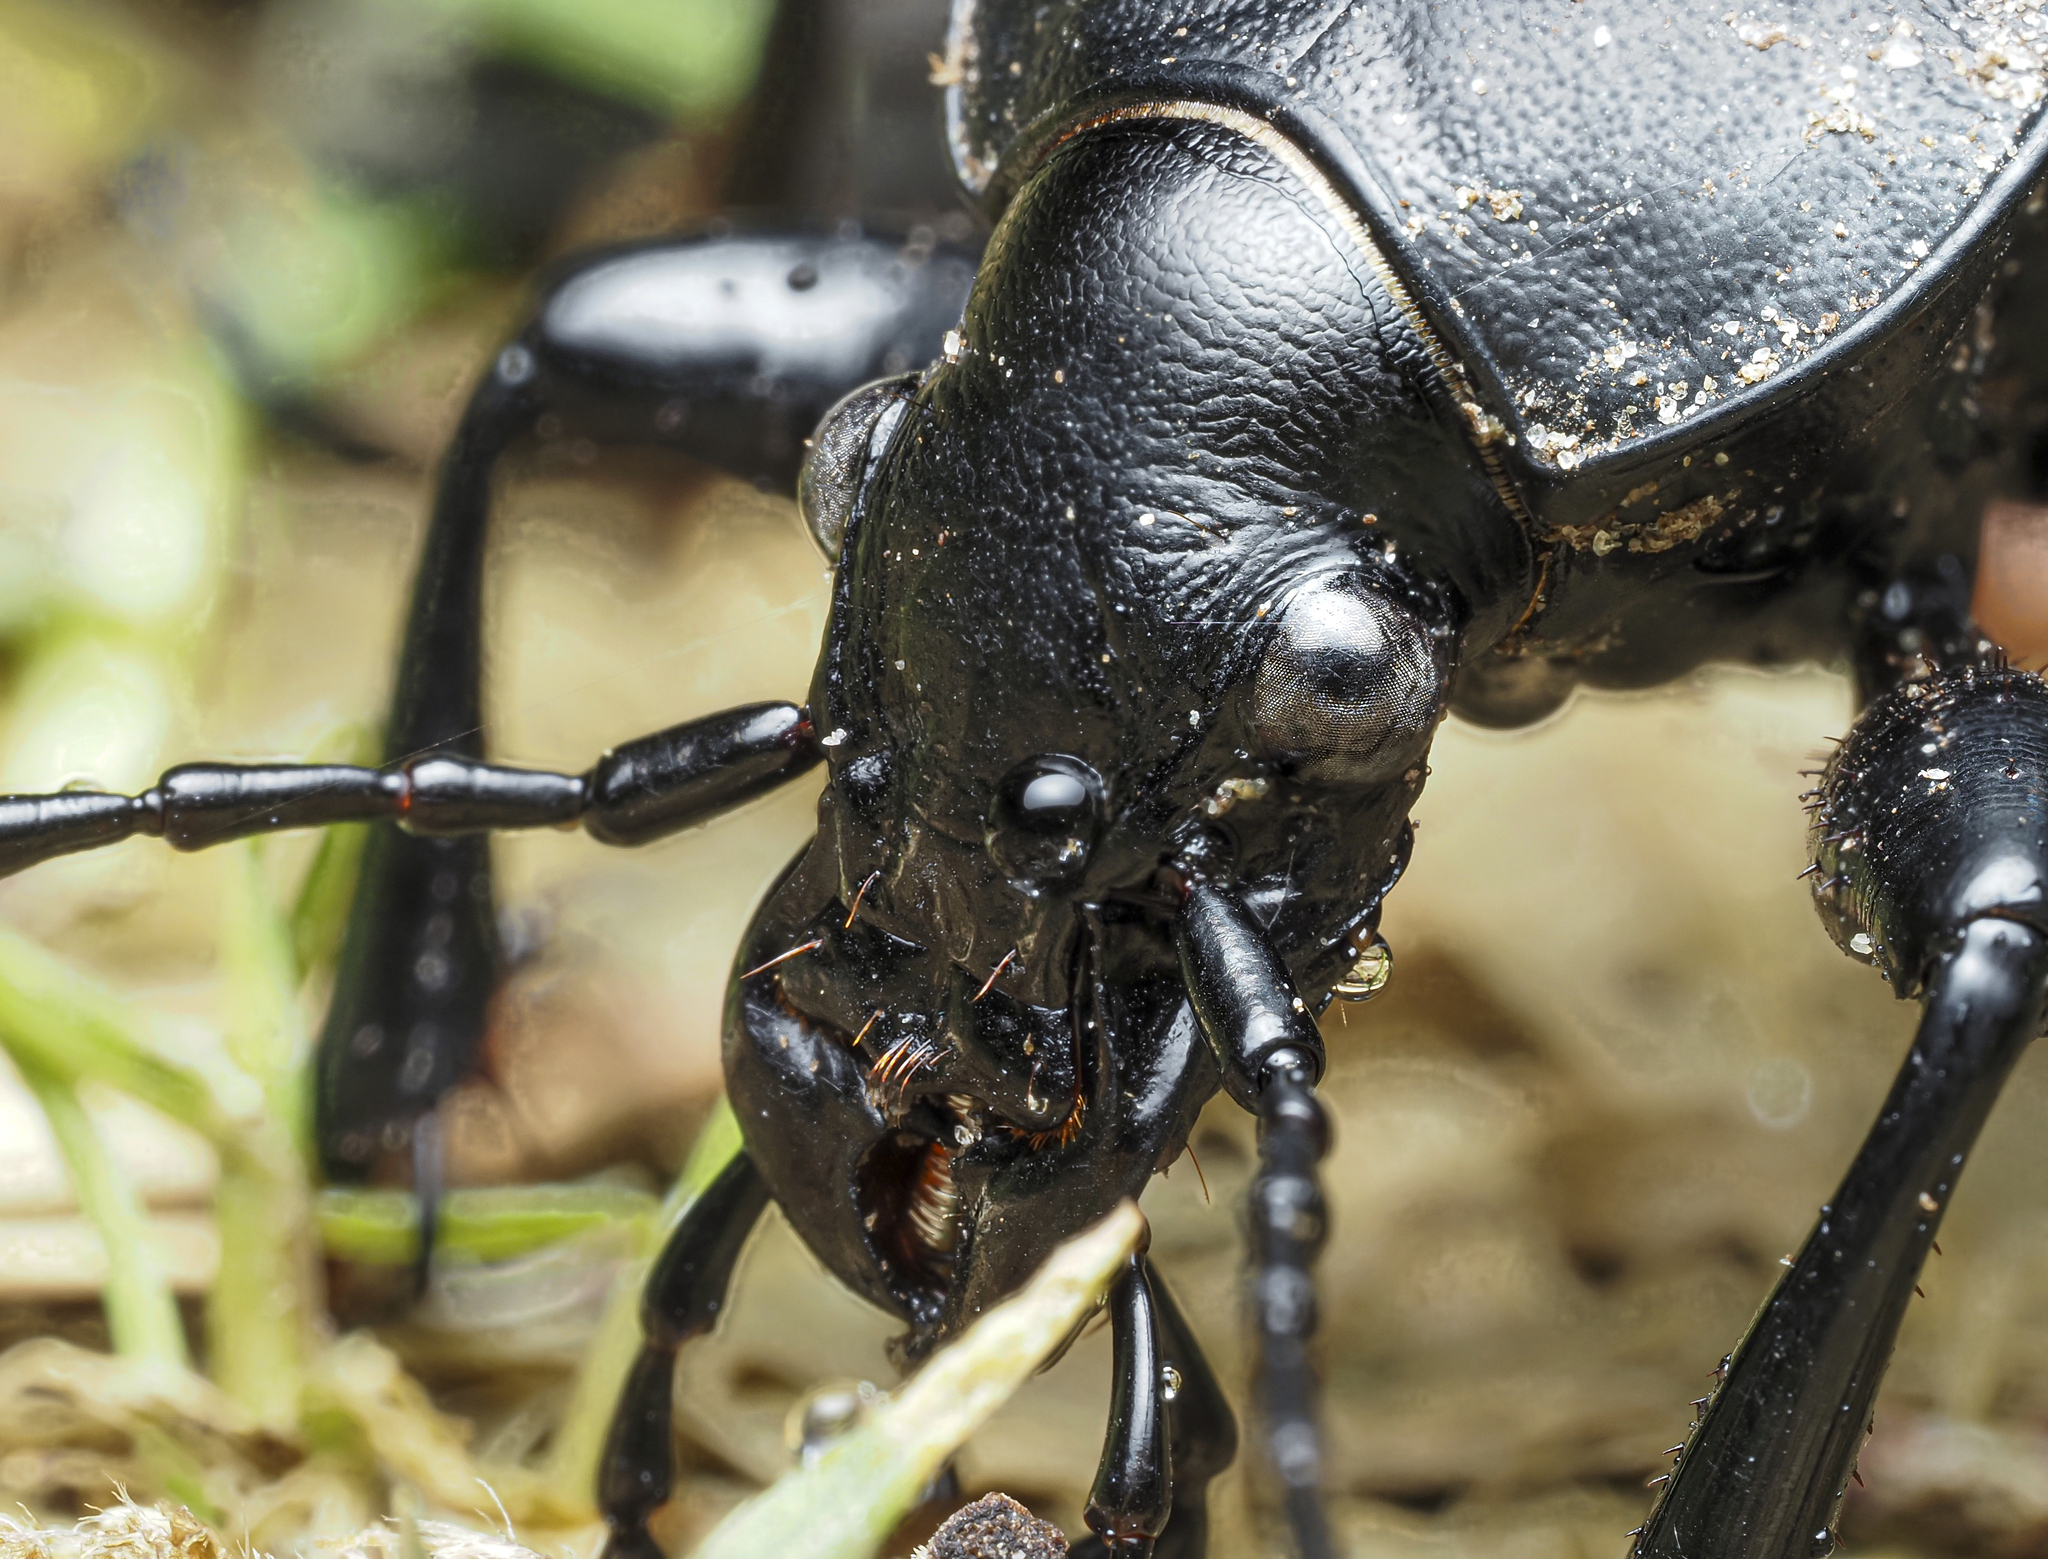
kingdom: Animalia
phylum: Arthropoda
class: Insecta
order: Coleoptera
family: Carabidae
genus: Carabus
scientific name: Carabus coriaceus
